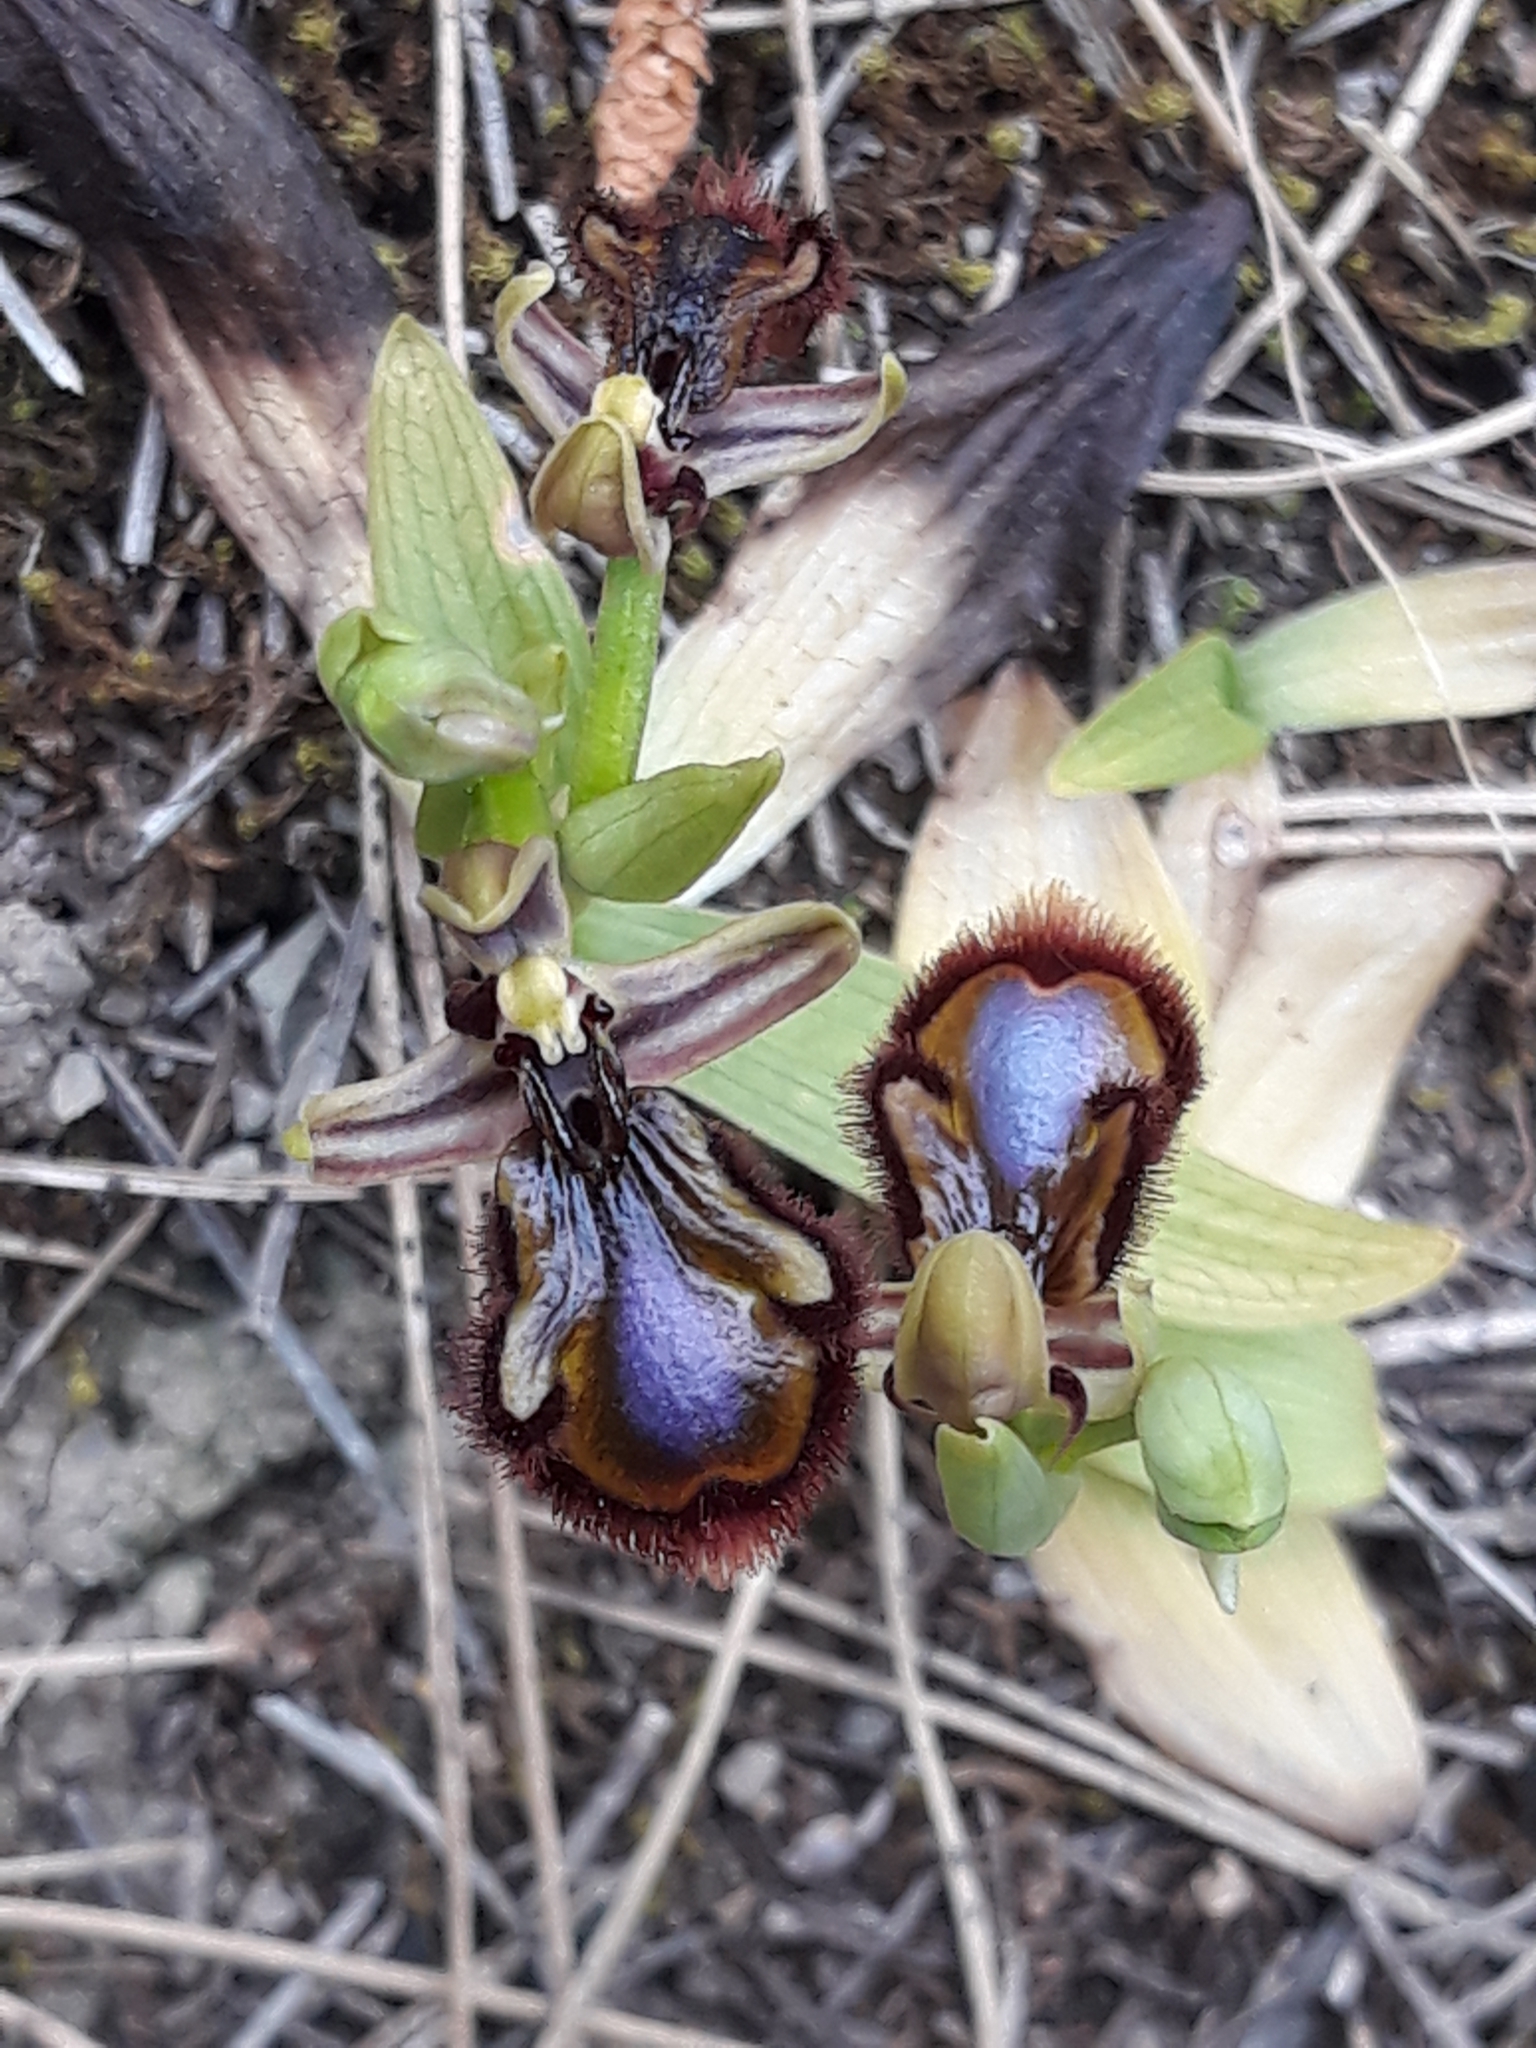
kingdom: Plantae
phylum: Tracheophyta
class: Liliopsida
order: Asparagales
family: Orchidaceae
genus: Ophrys
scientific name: Ophrys speculum
